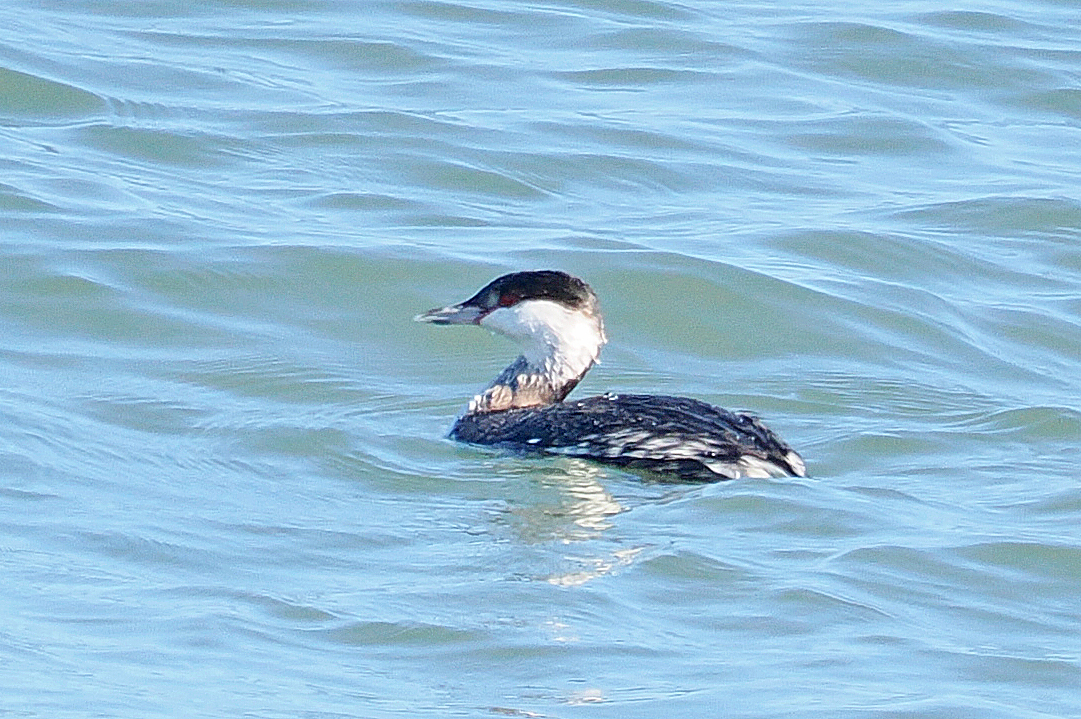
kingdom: Animalia
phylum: Chordata
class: Aves
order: Podicipediformes
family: Podicipedidae
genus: Podiceps
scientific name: Podiceps auritus
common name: Horned grebe
